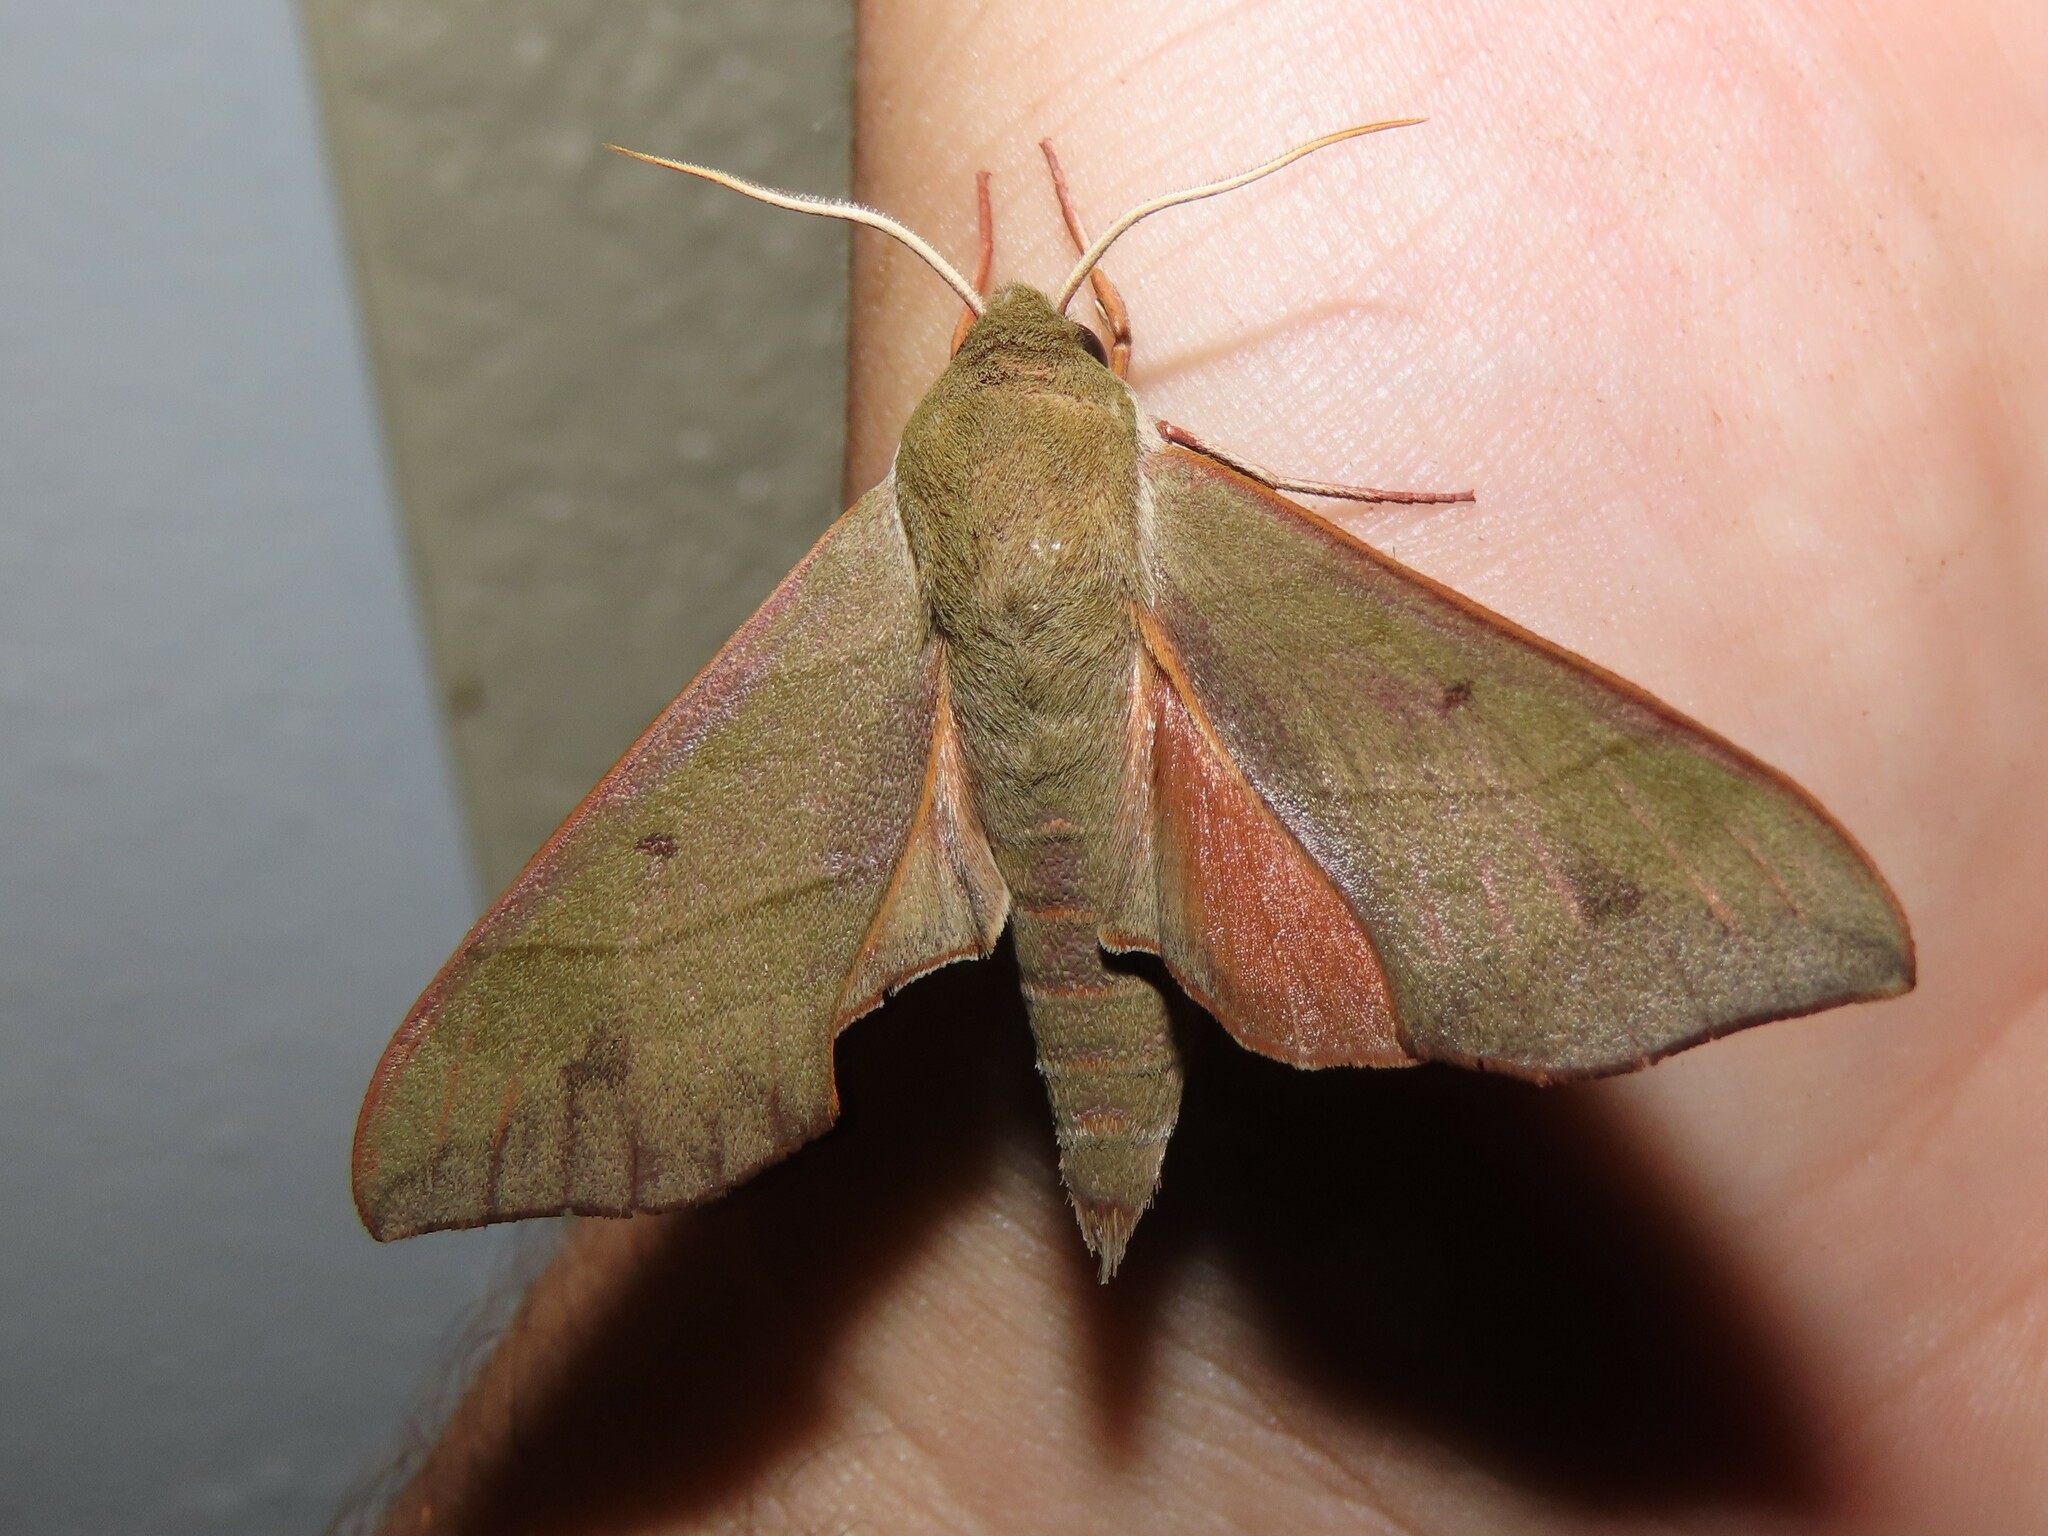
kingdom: Animalia
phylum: Arthropoda
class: Insecta
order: Lepidoptera
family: Sphingidae
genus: Darapsa
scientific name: Darapsa myron
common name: Hog sphinx
